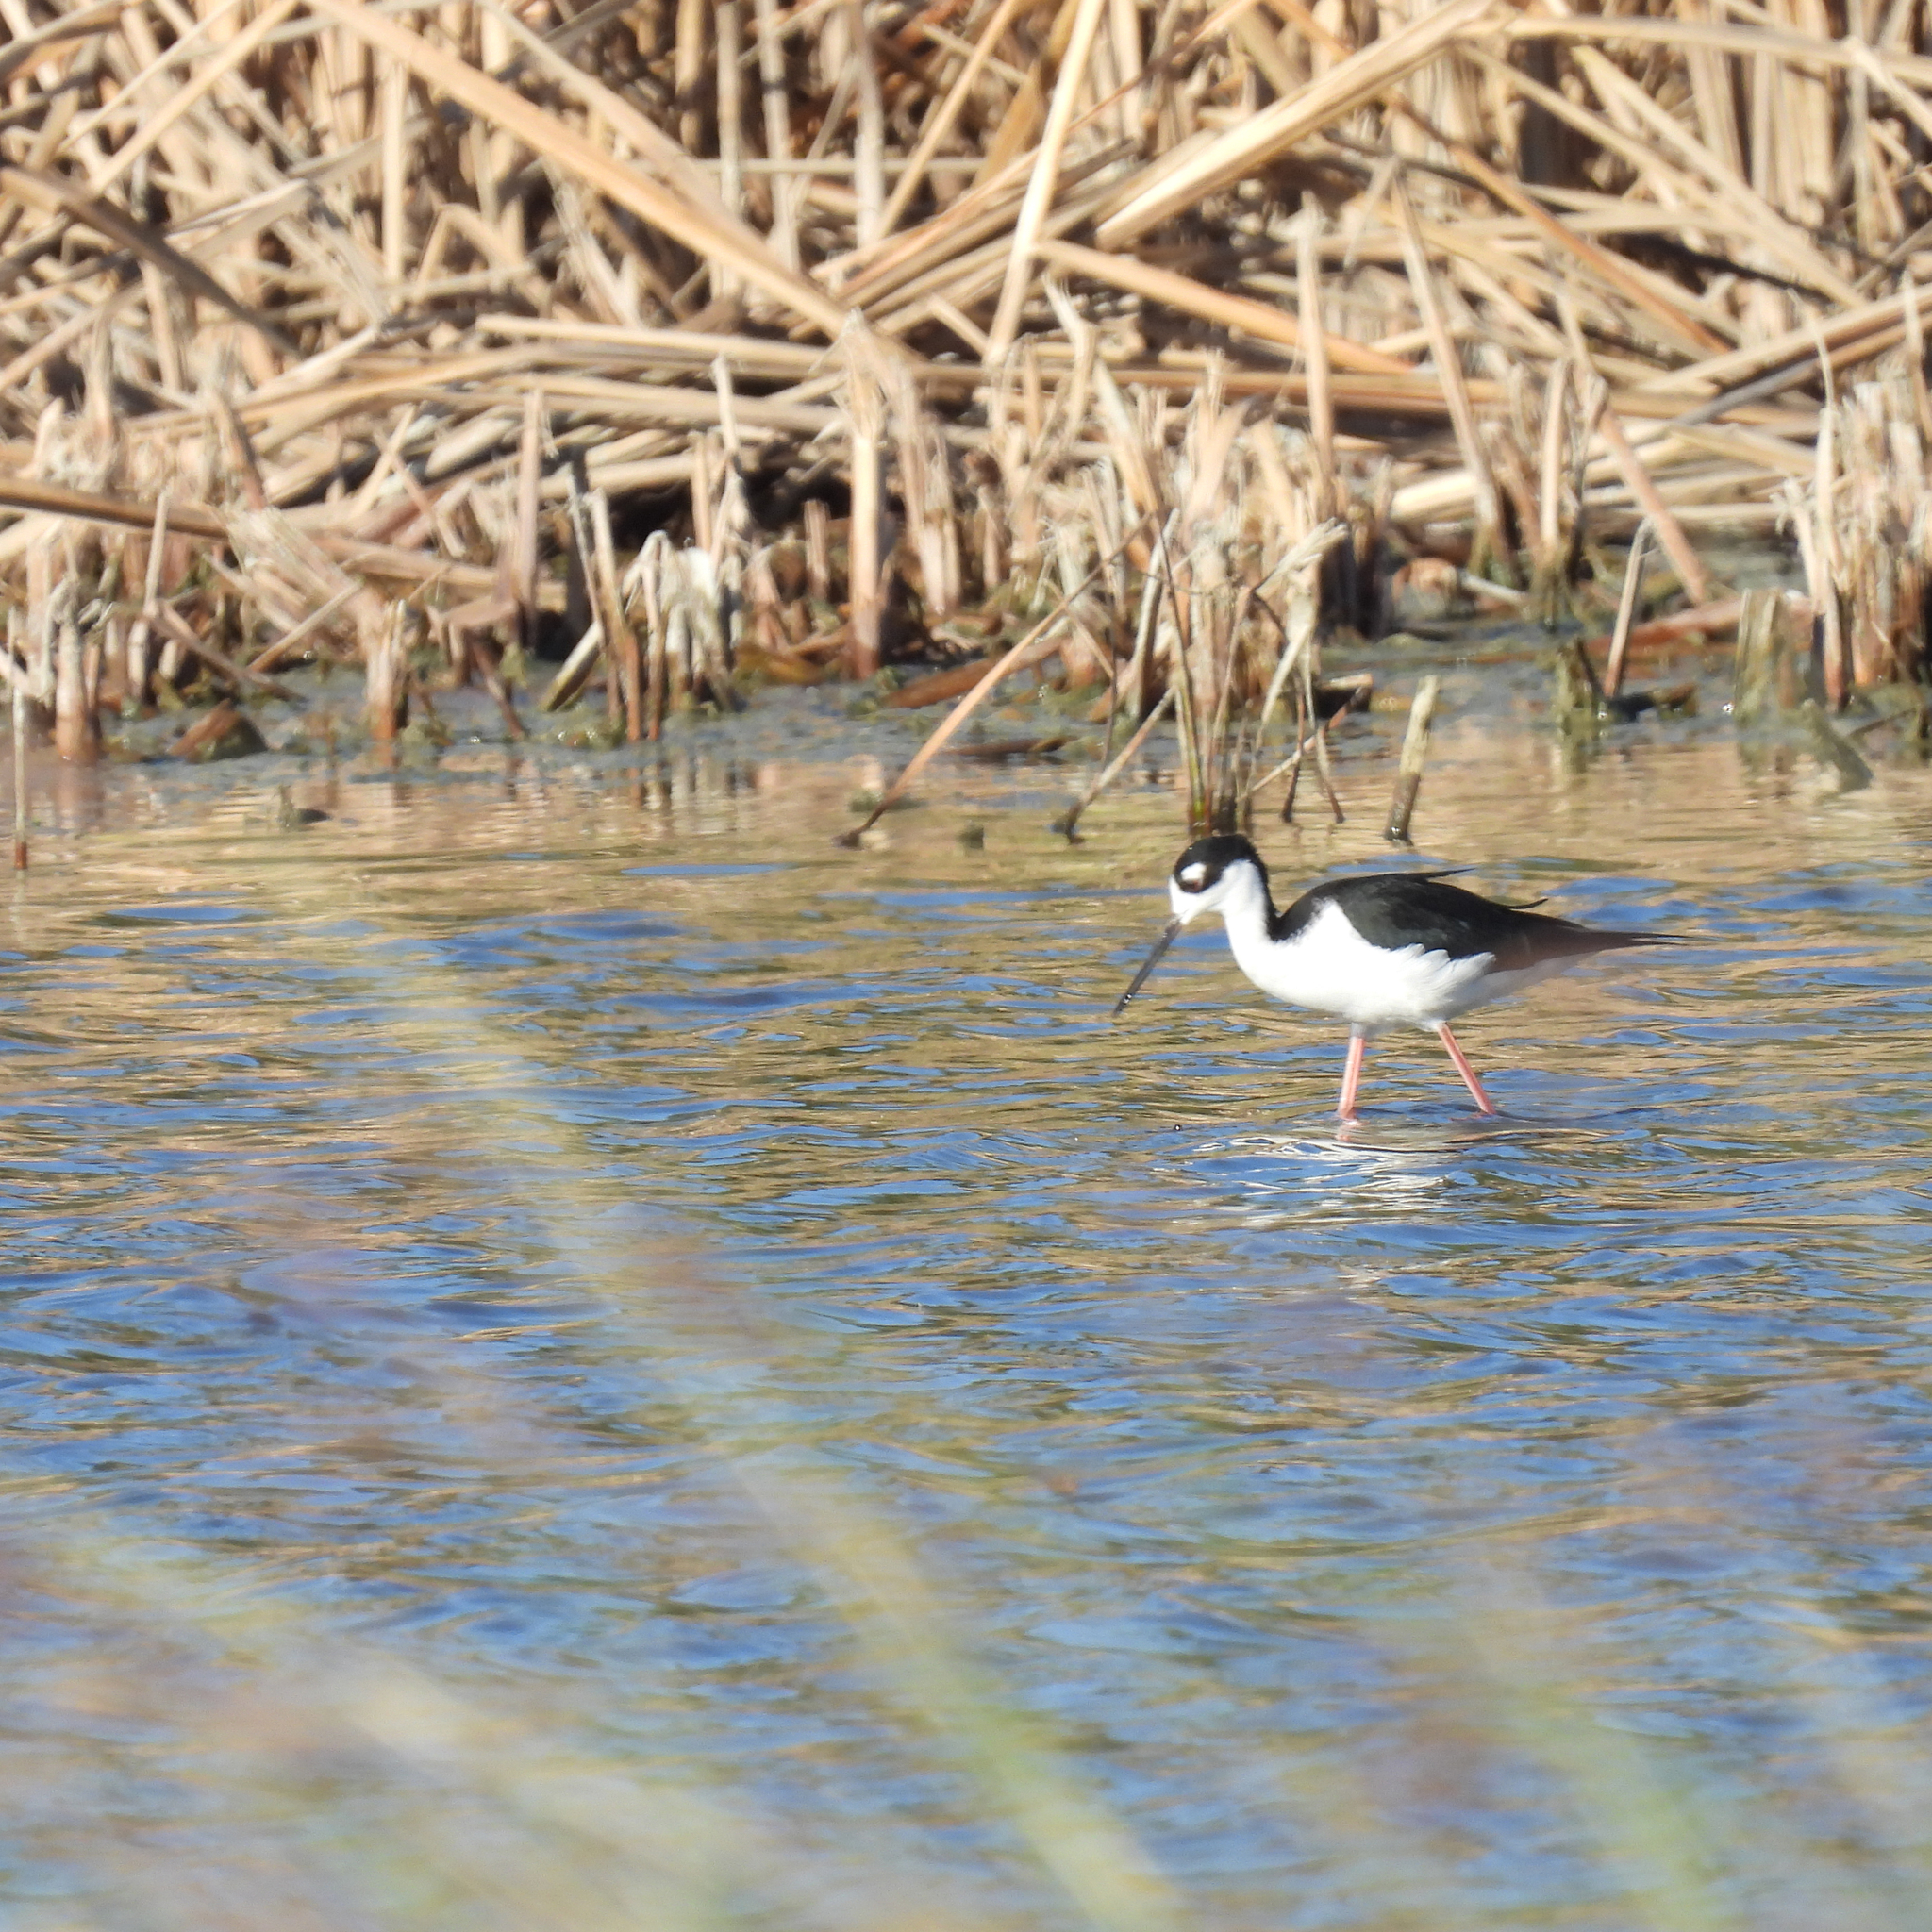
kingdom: Animalia
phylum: Chordata
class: Aves
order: Charadriiformes
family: Recurvirostridae
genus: Himantopus
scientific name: Himantopus mexicanus
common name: Black-necked stilt
